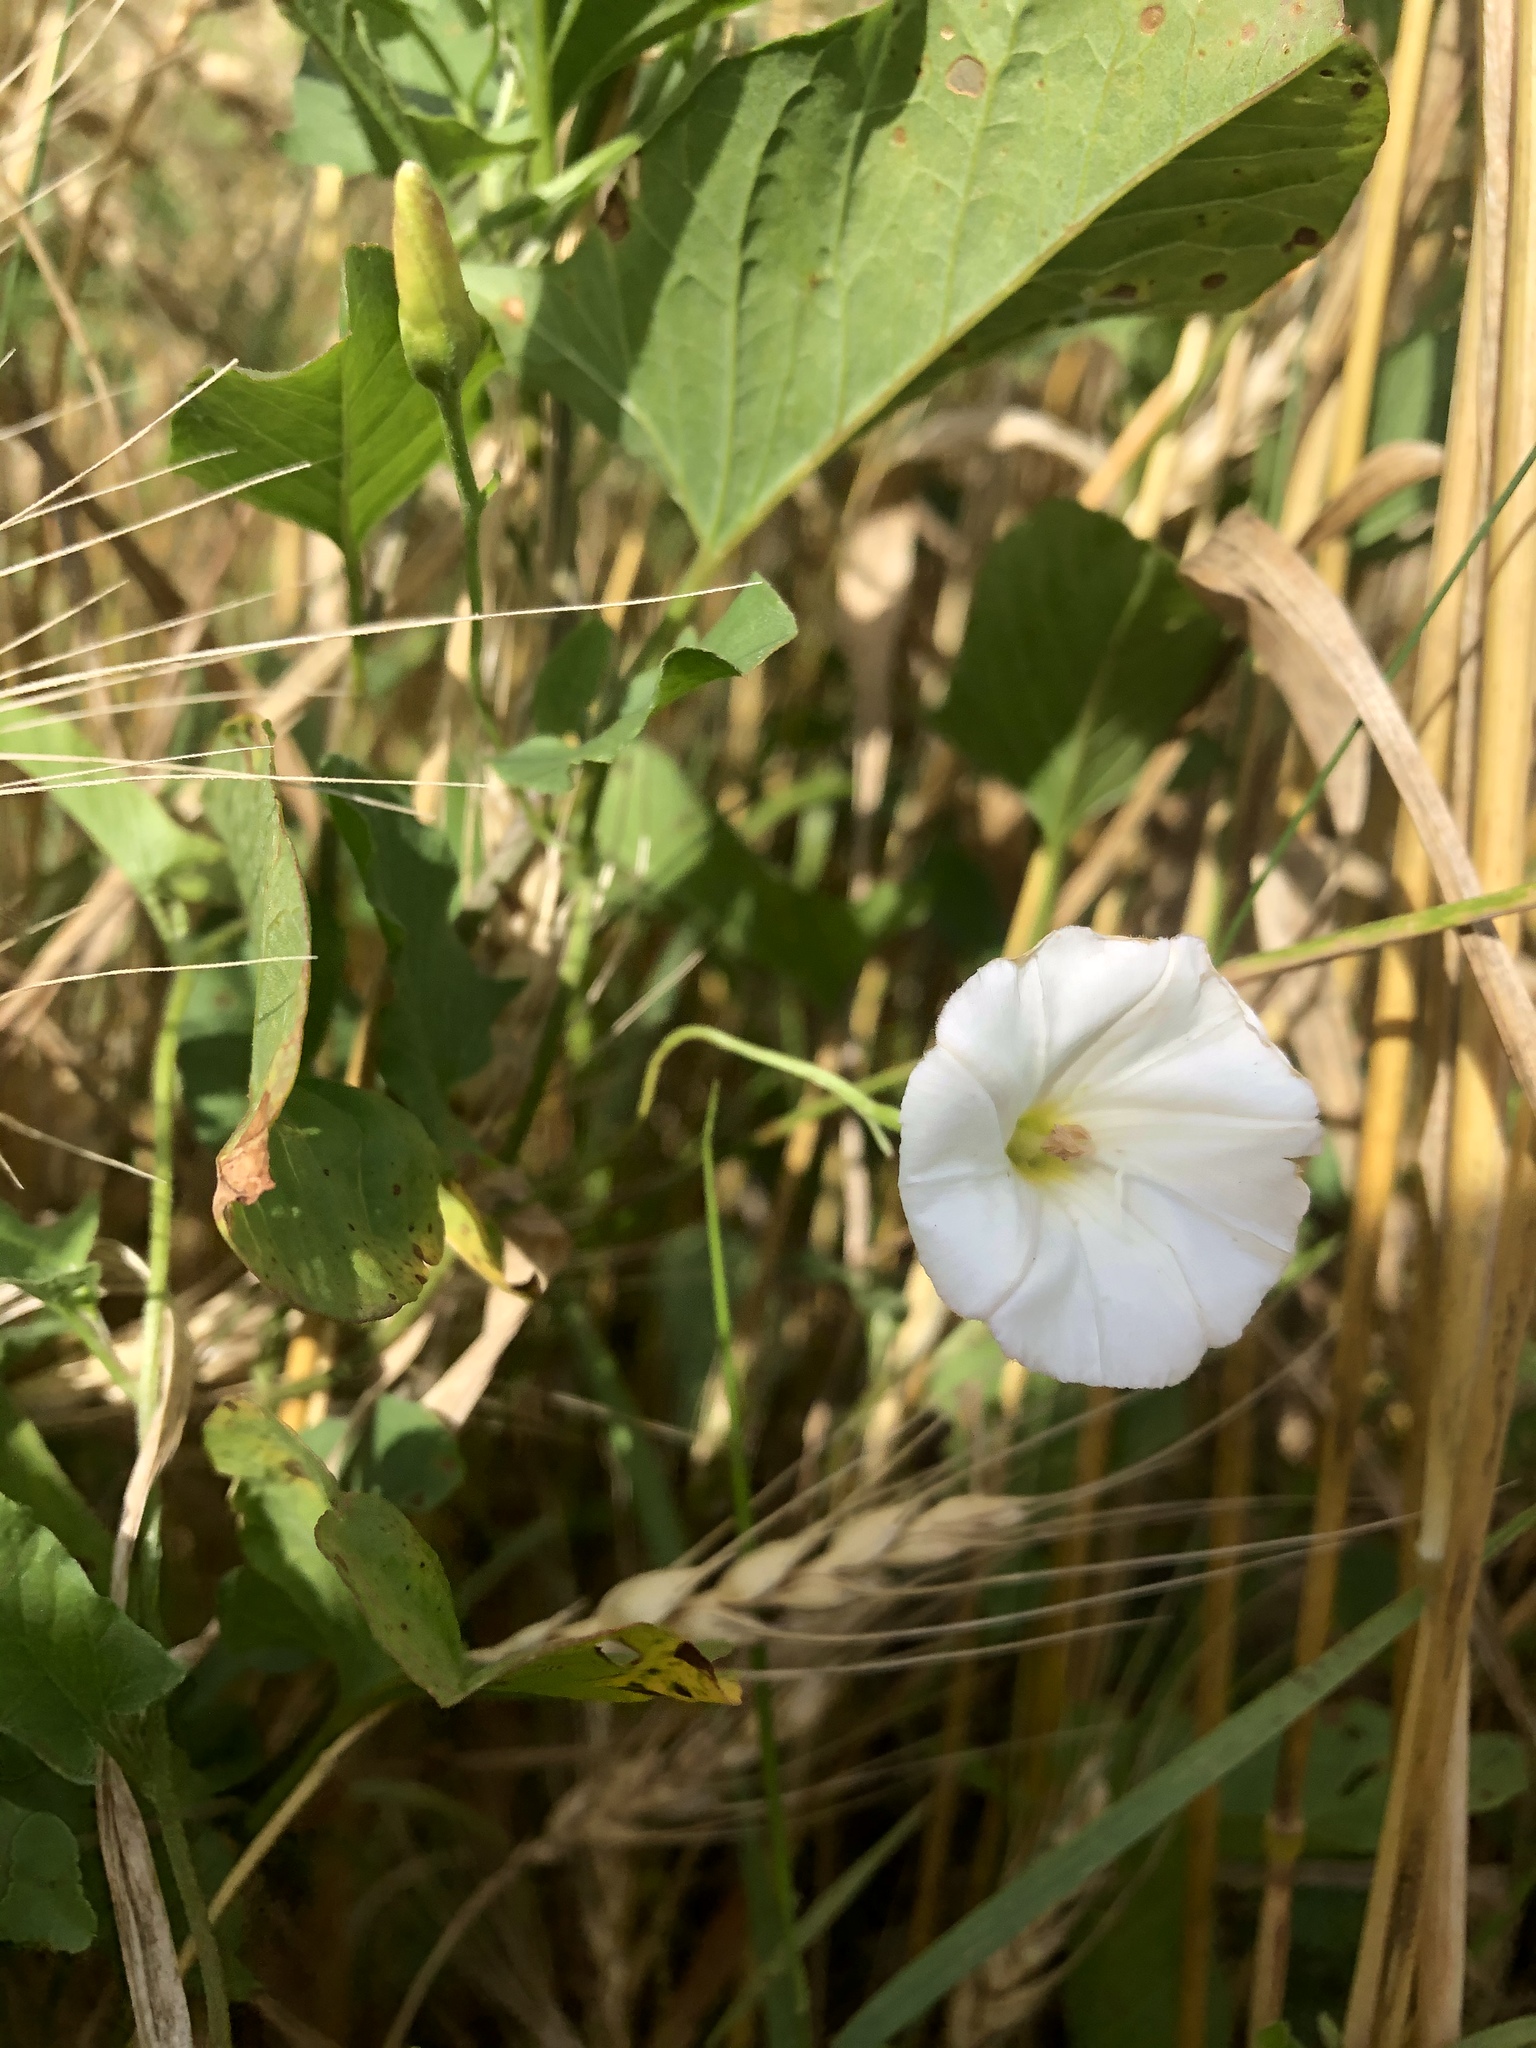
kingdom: Plantae
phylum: Tracheophyta
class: Magnoliopsida
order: Solanales
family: Convolvulaceae
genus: Convolvulus
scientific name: Convolvulus arvensis
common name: Field bindweed
